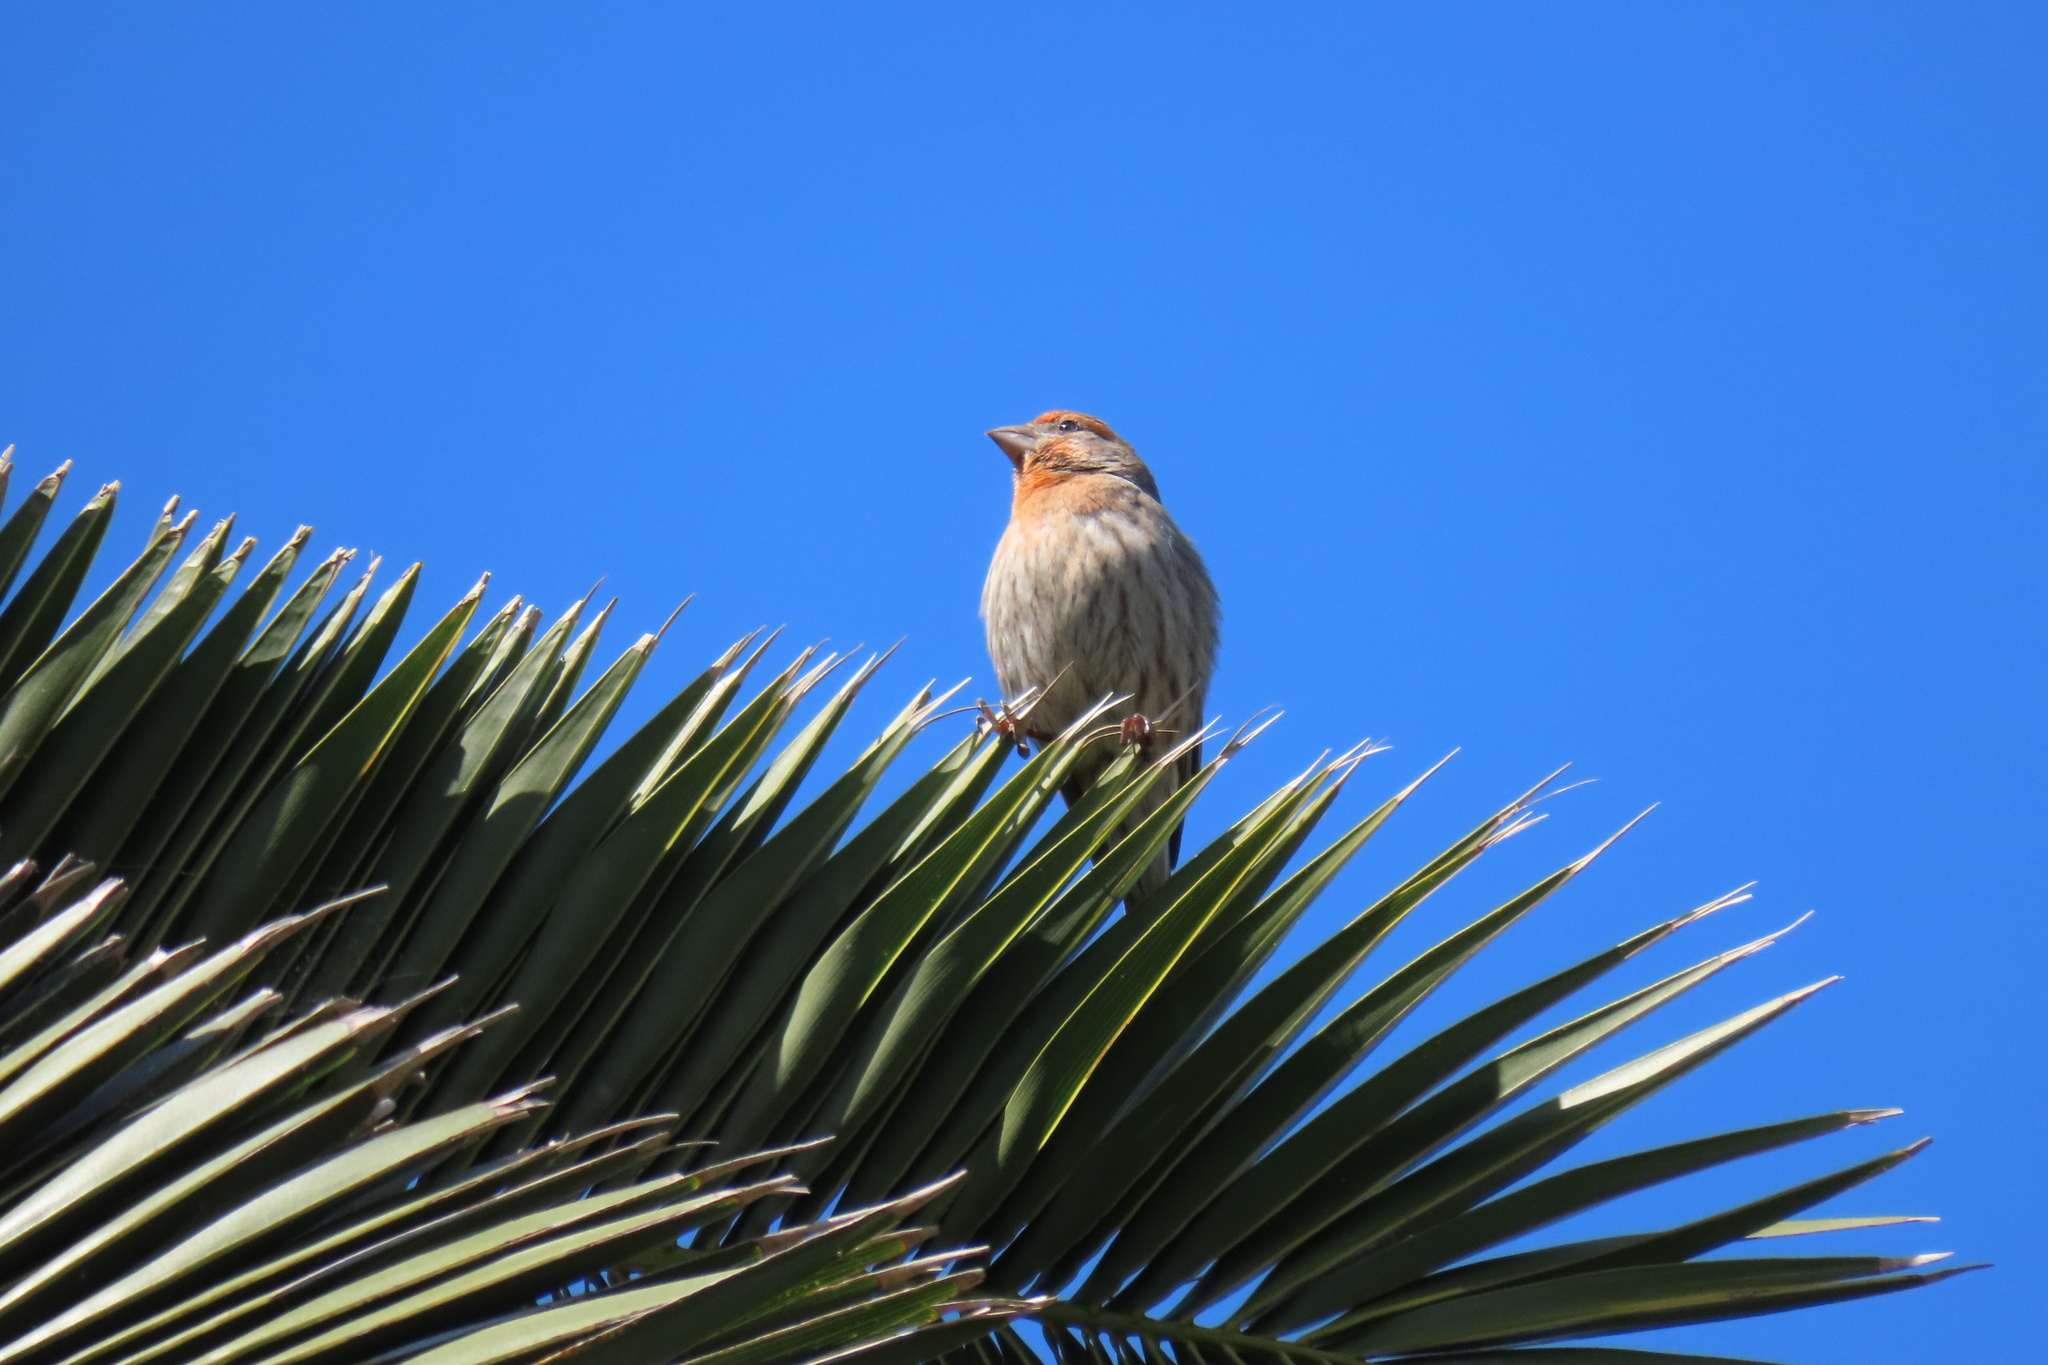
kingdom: Animalia
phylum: Chordata
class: Aves
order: Passeriformes
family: Fringillidae
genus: Haemorhous
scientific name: Haemorhous mexicanus
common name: House finch
